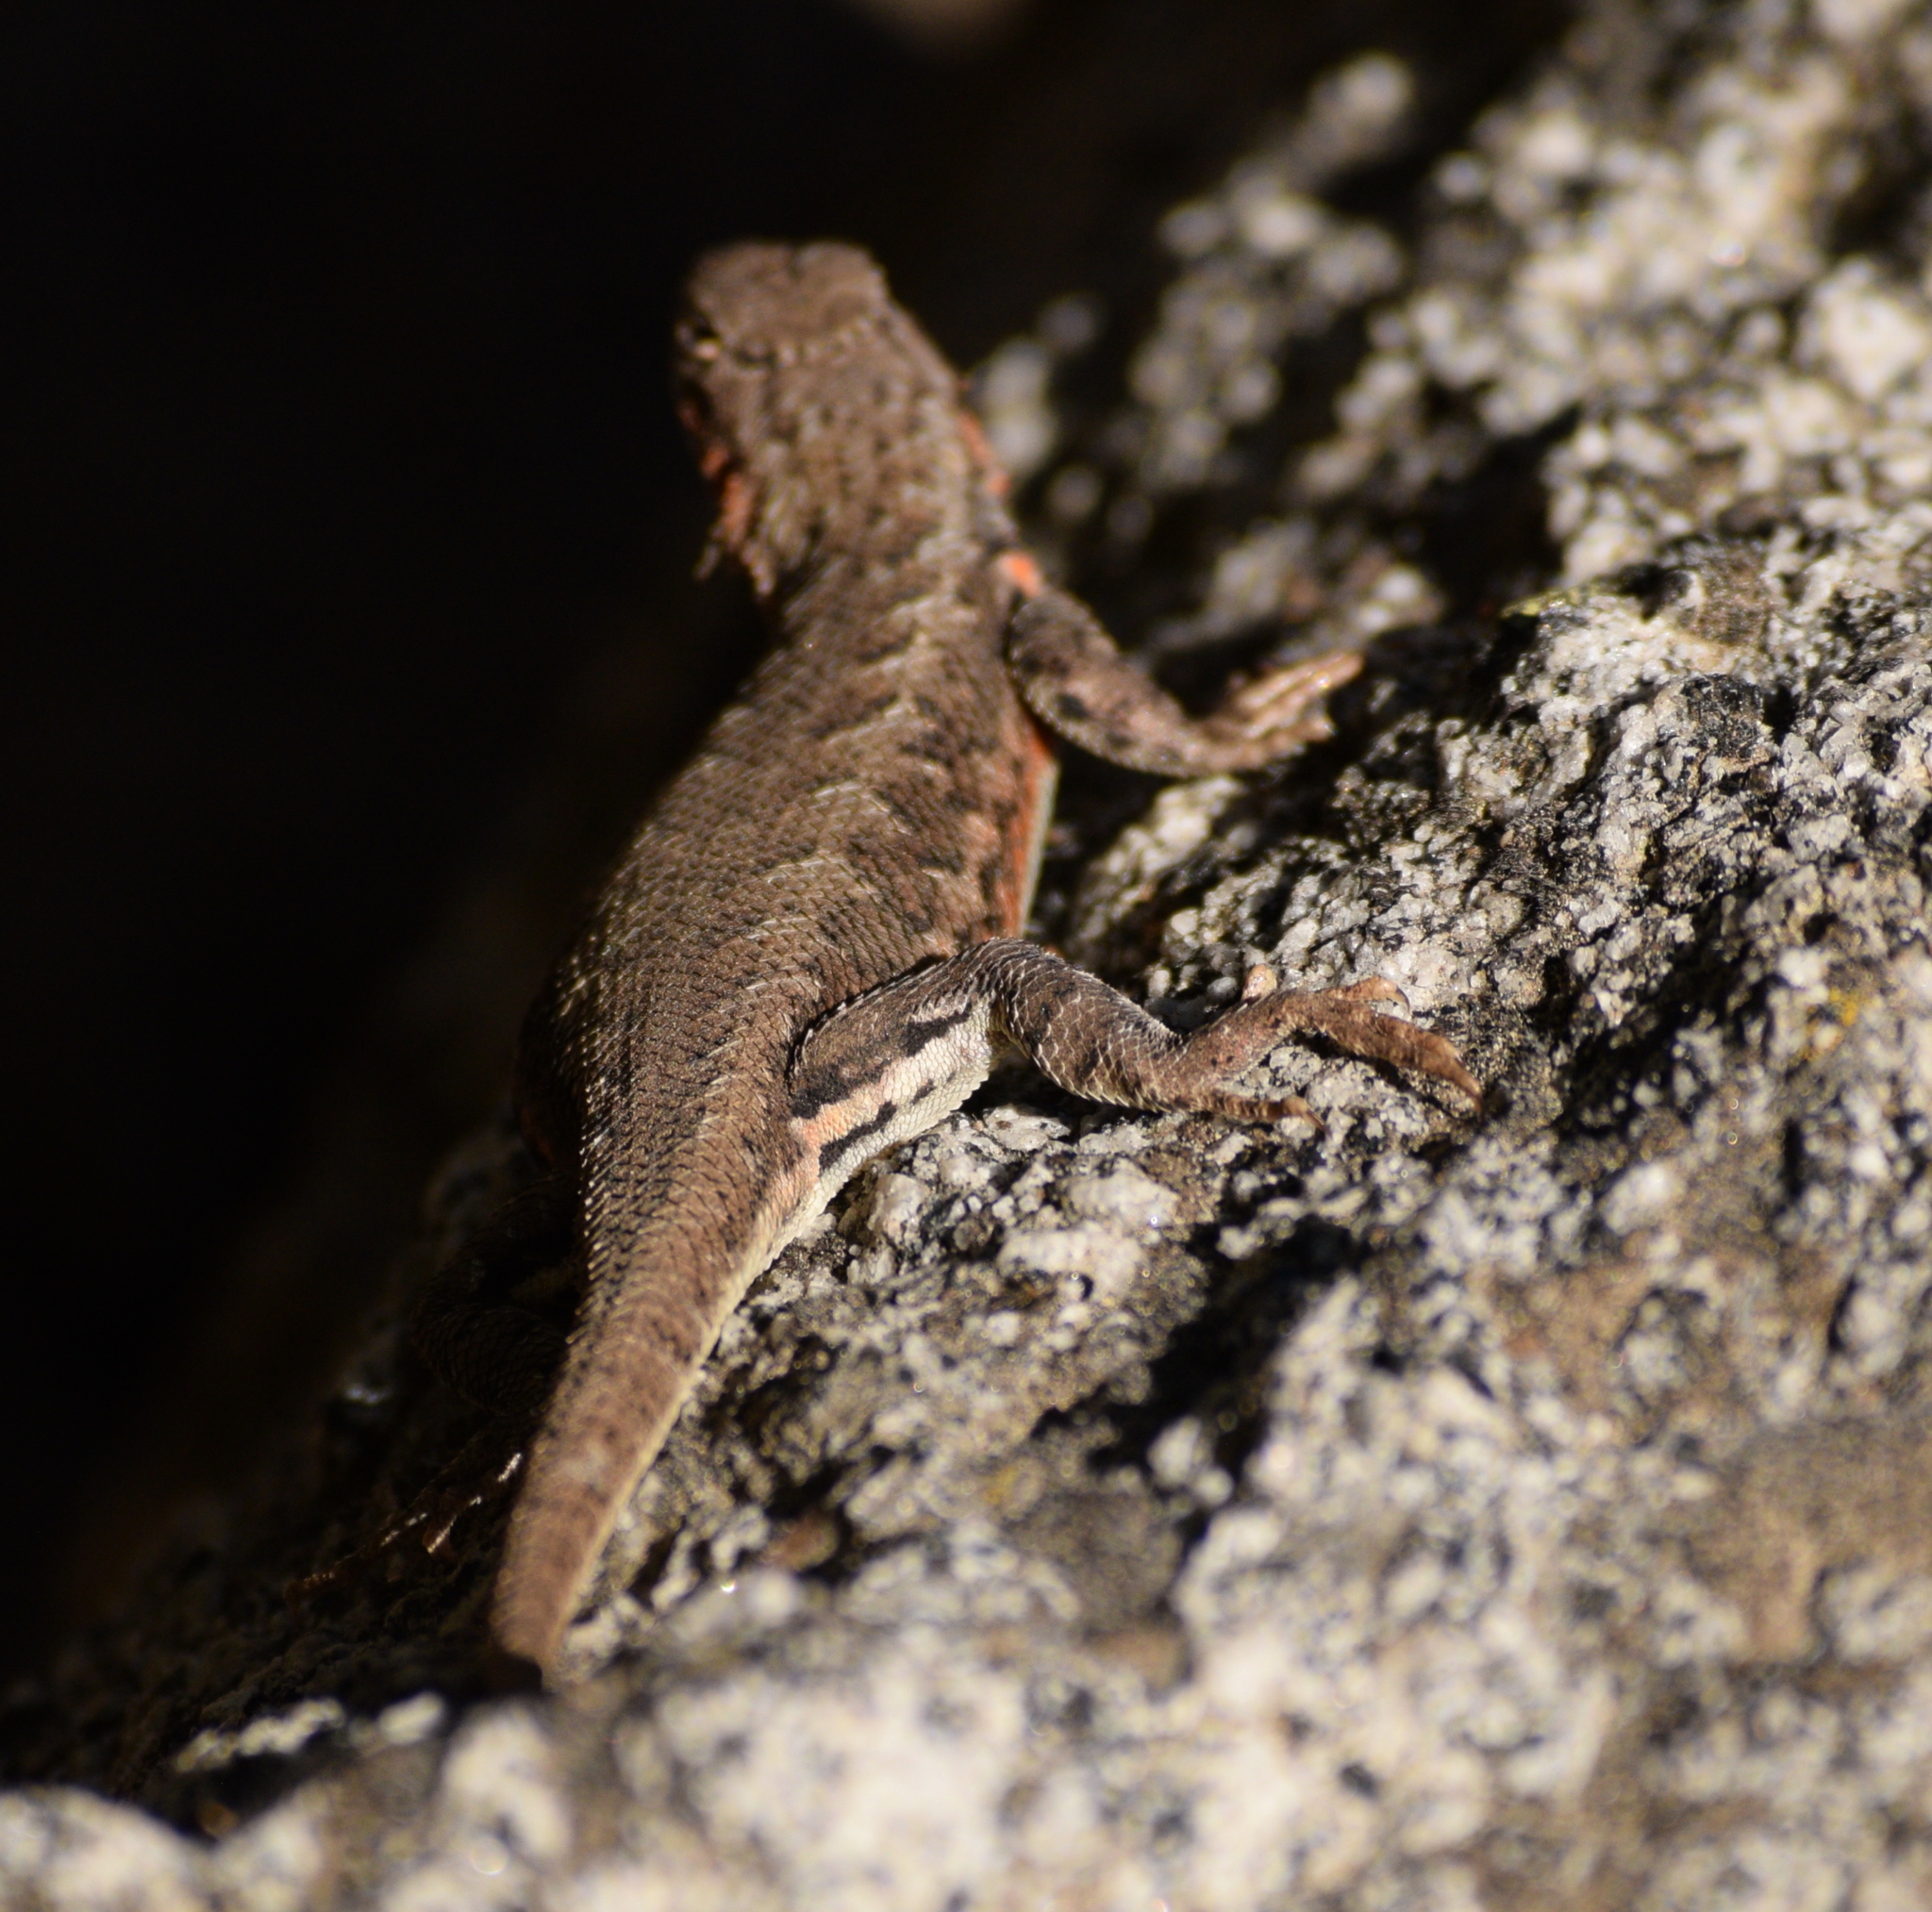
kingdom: Animalia
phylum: Chordata
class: Squamata
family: Phrynosomatidae
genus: Sceloporus
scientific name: Sceloporus graciosus
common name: Sagebrush lizard
